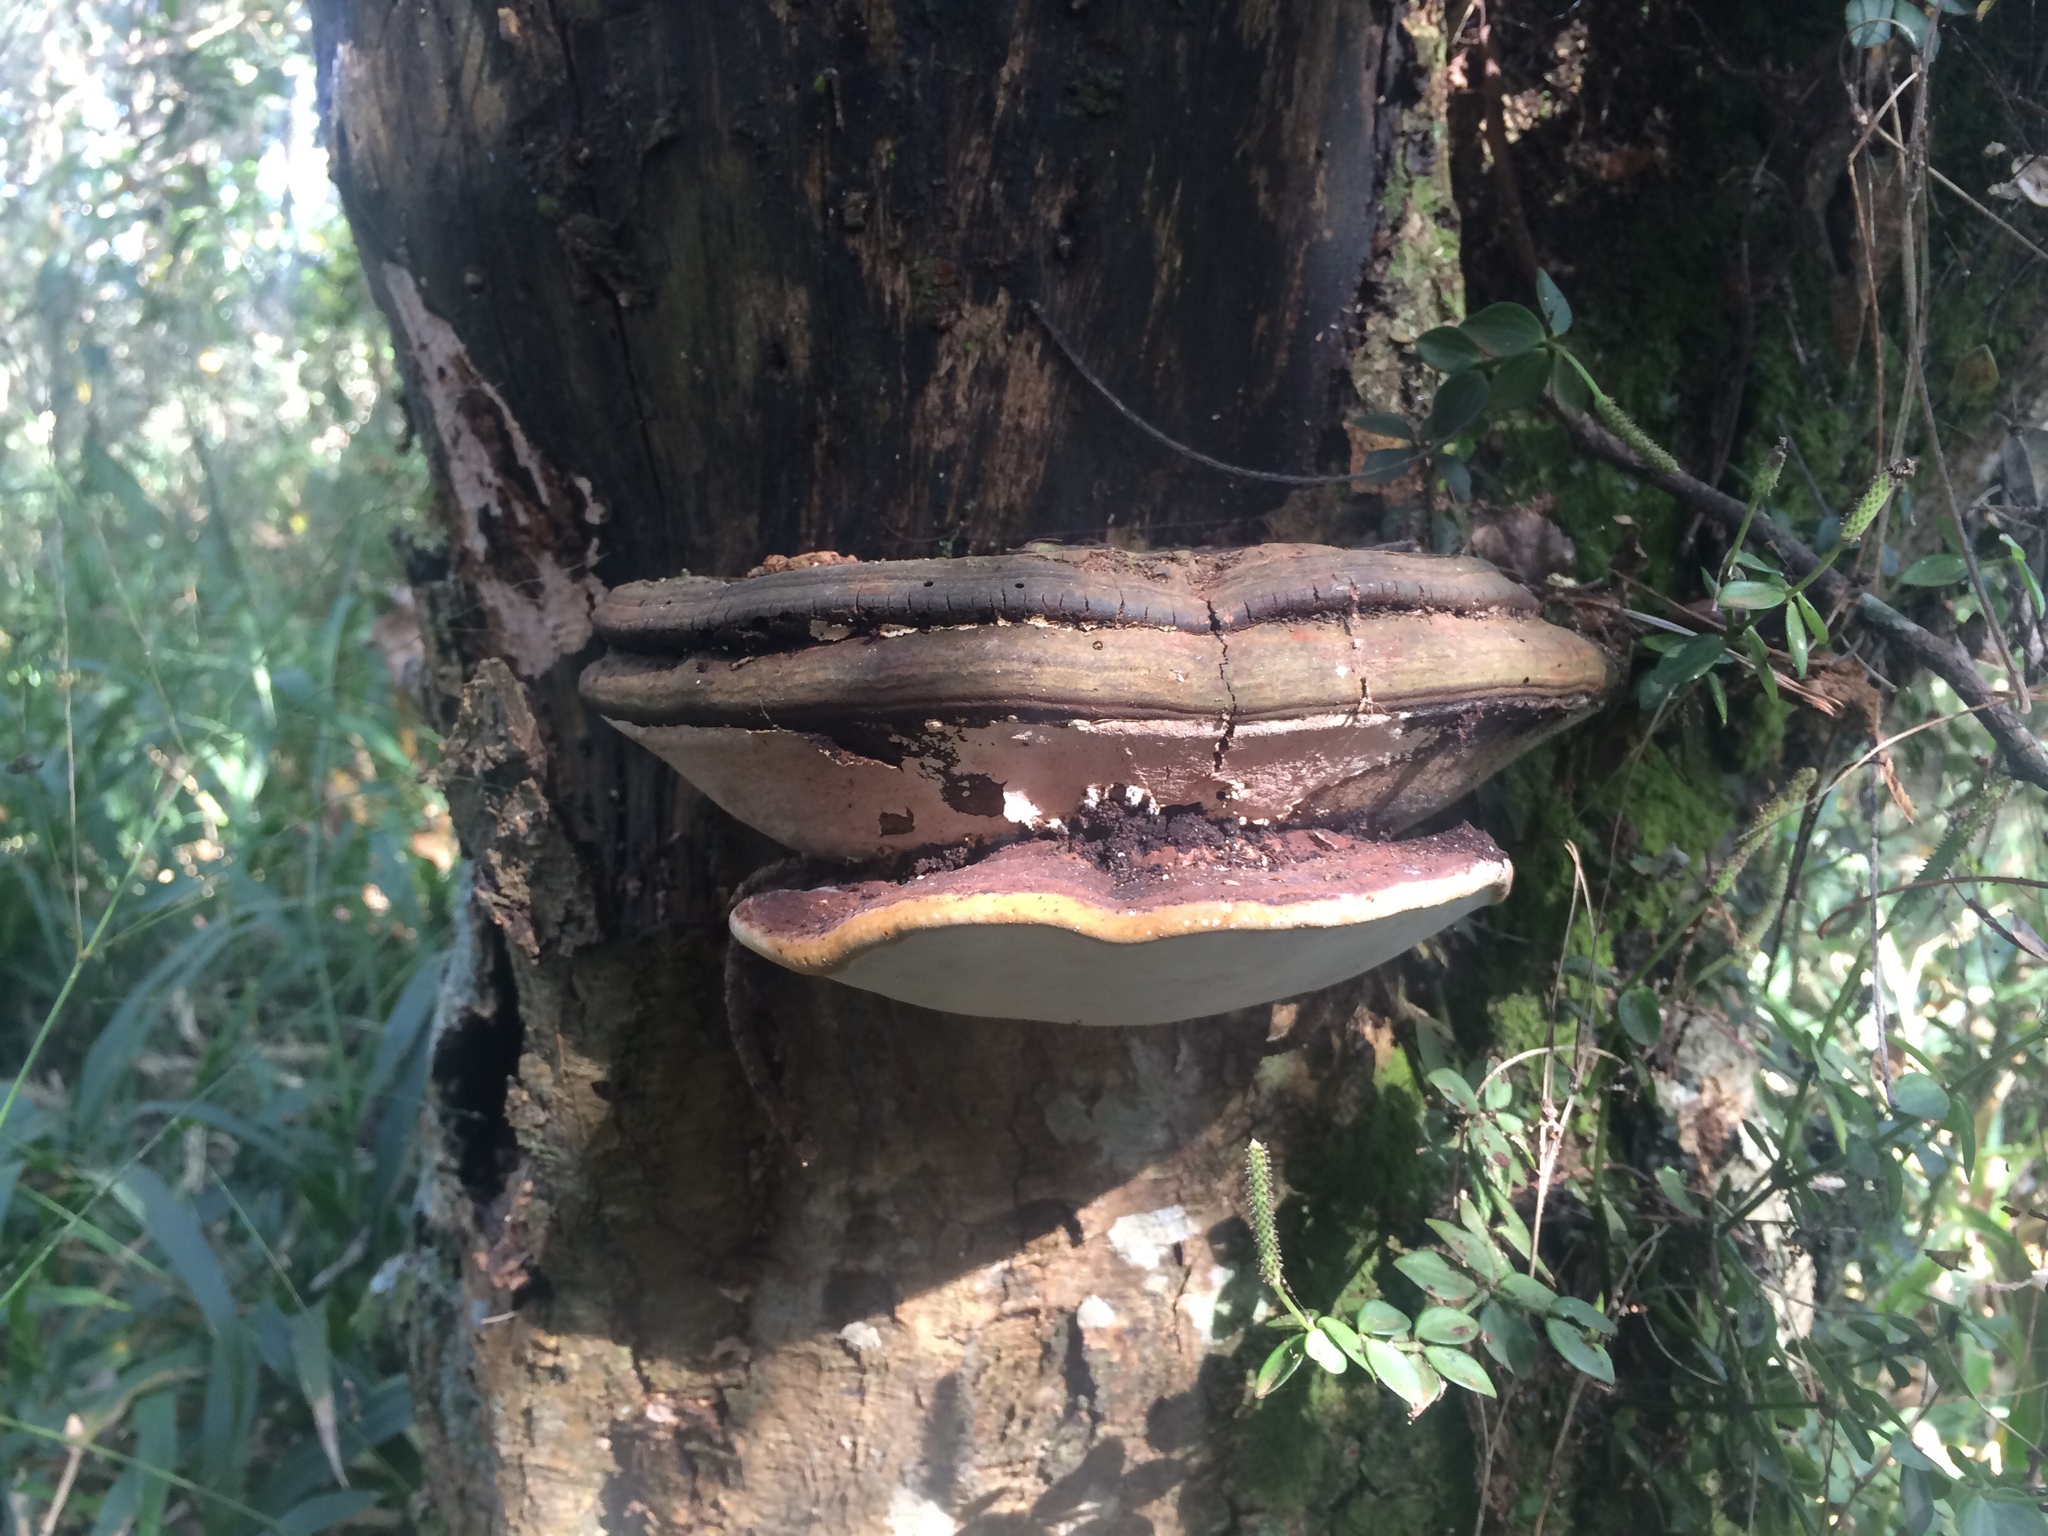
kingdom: Fungi
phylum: Basidiomycota
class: Agaricomycetes
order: Polyporales
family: Polyporaceae
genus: Ganoderma
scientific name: Ganoderma applanatum
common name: Artist's bracket
